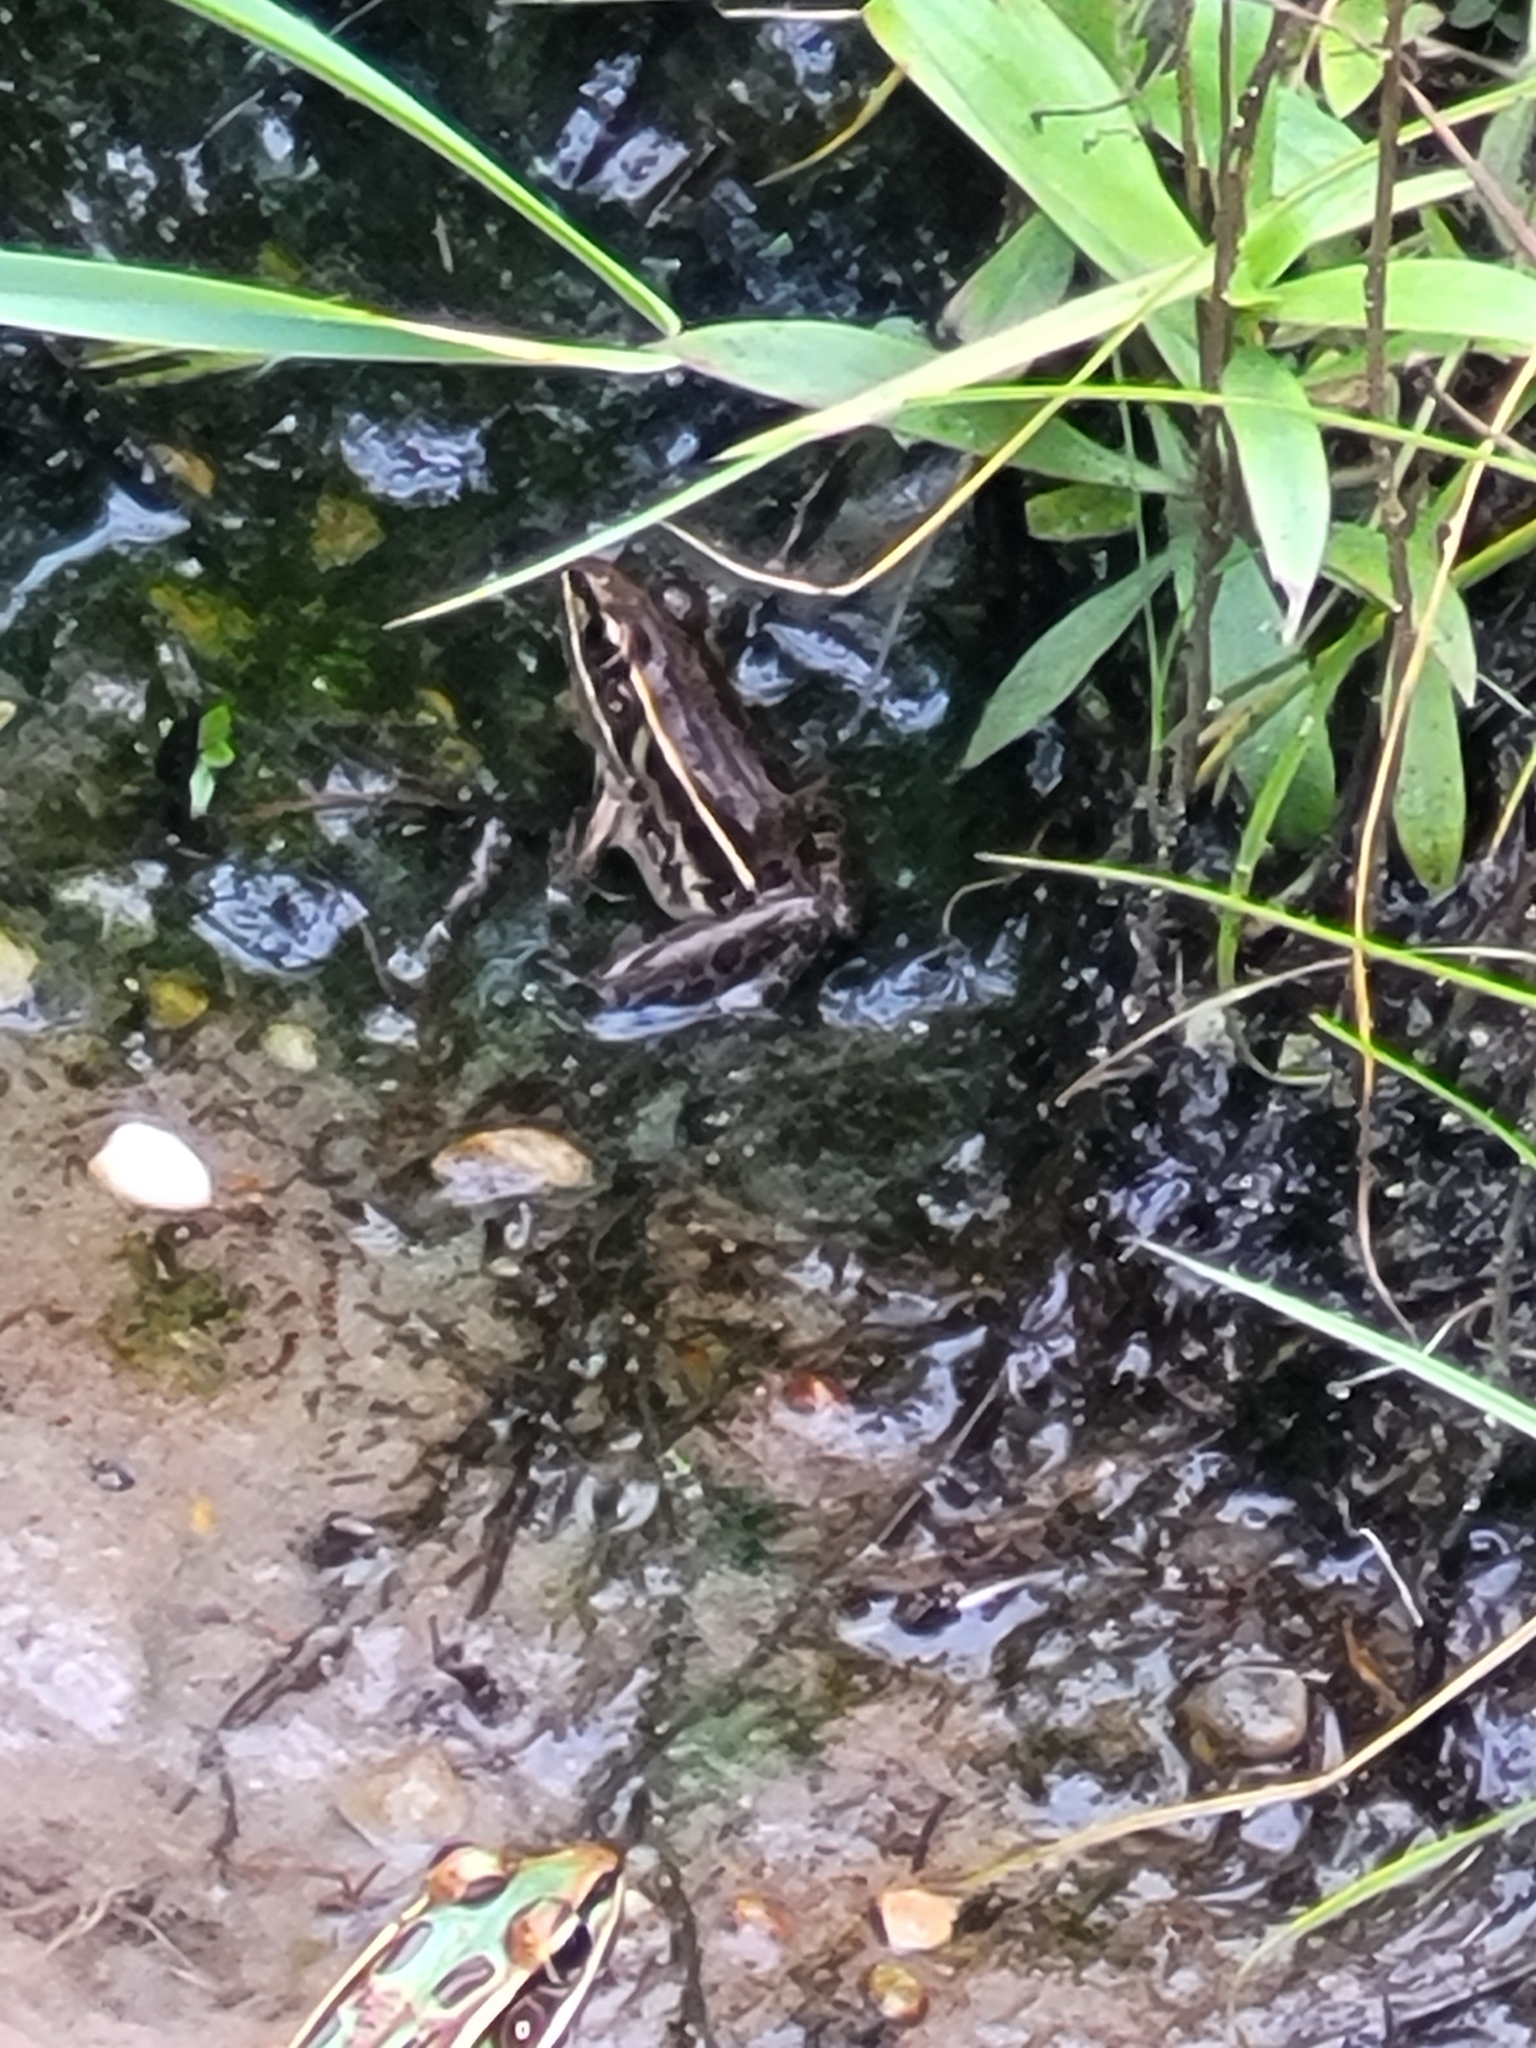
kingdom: Animalia
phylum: Chordata
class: Amphibia
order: Anura
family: Ranidae
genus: Lithobates
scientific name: Lithobates sphenocephalus
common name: Southern leopard frog
